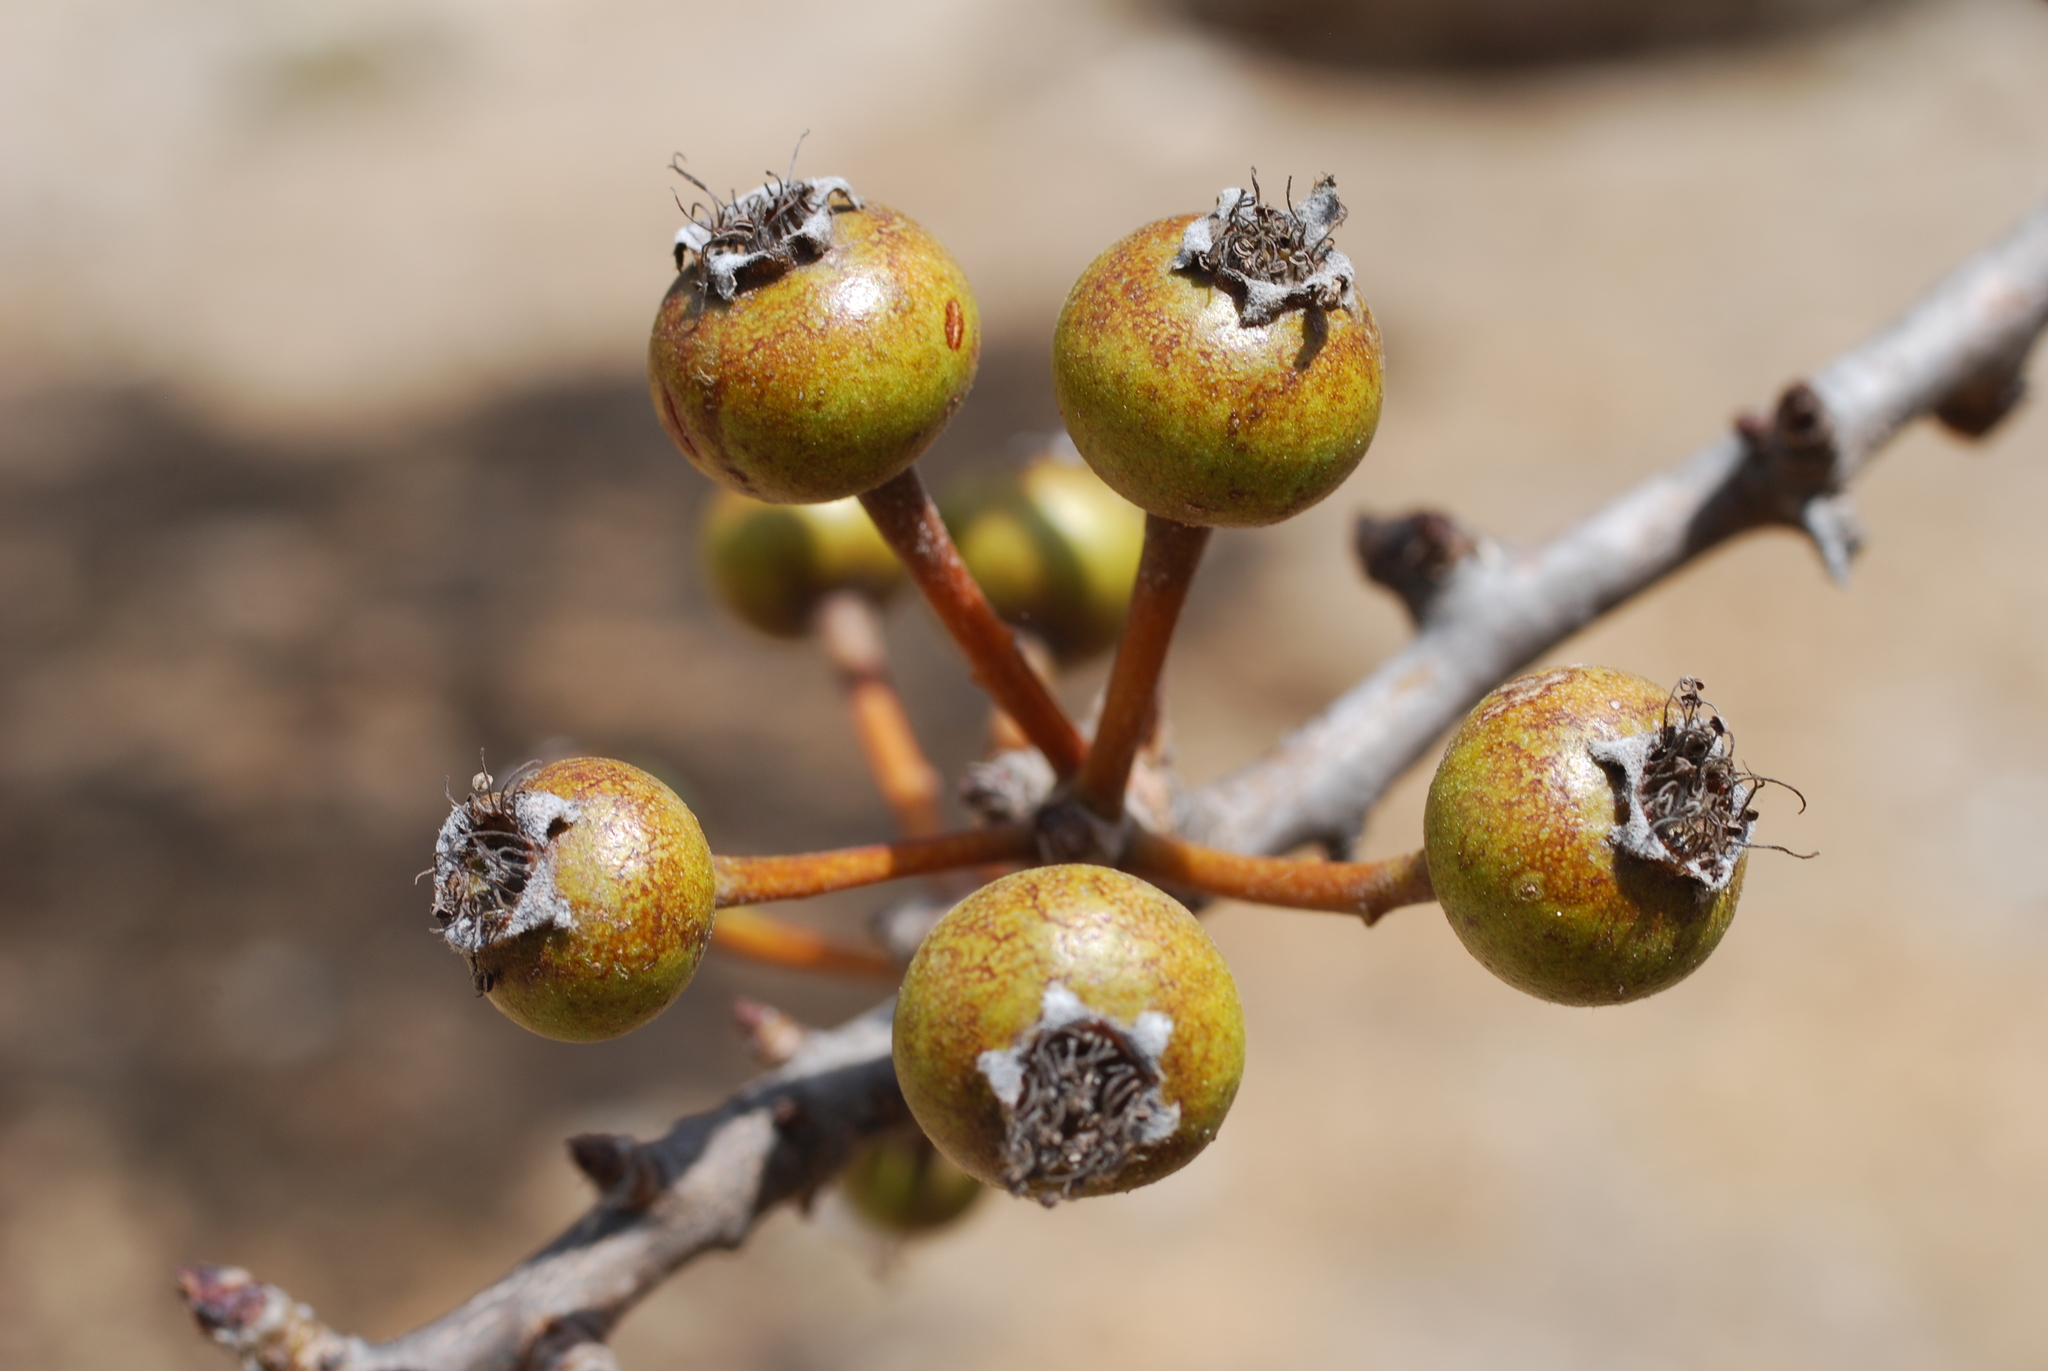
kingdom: Plantae
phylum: Tracheophyta
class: Magnoliopsida
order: Rosales
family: Rosaceae
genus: Pyrus
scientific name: Pyrus spinosa
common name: Almond-leaf pear
